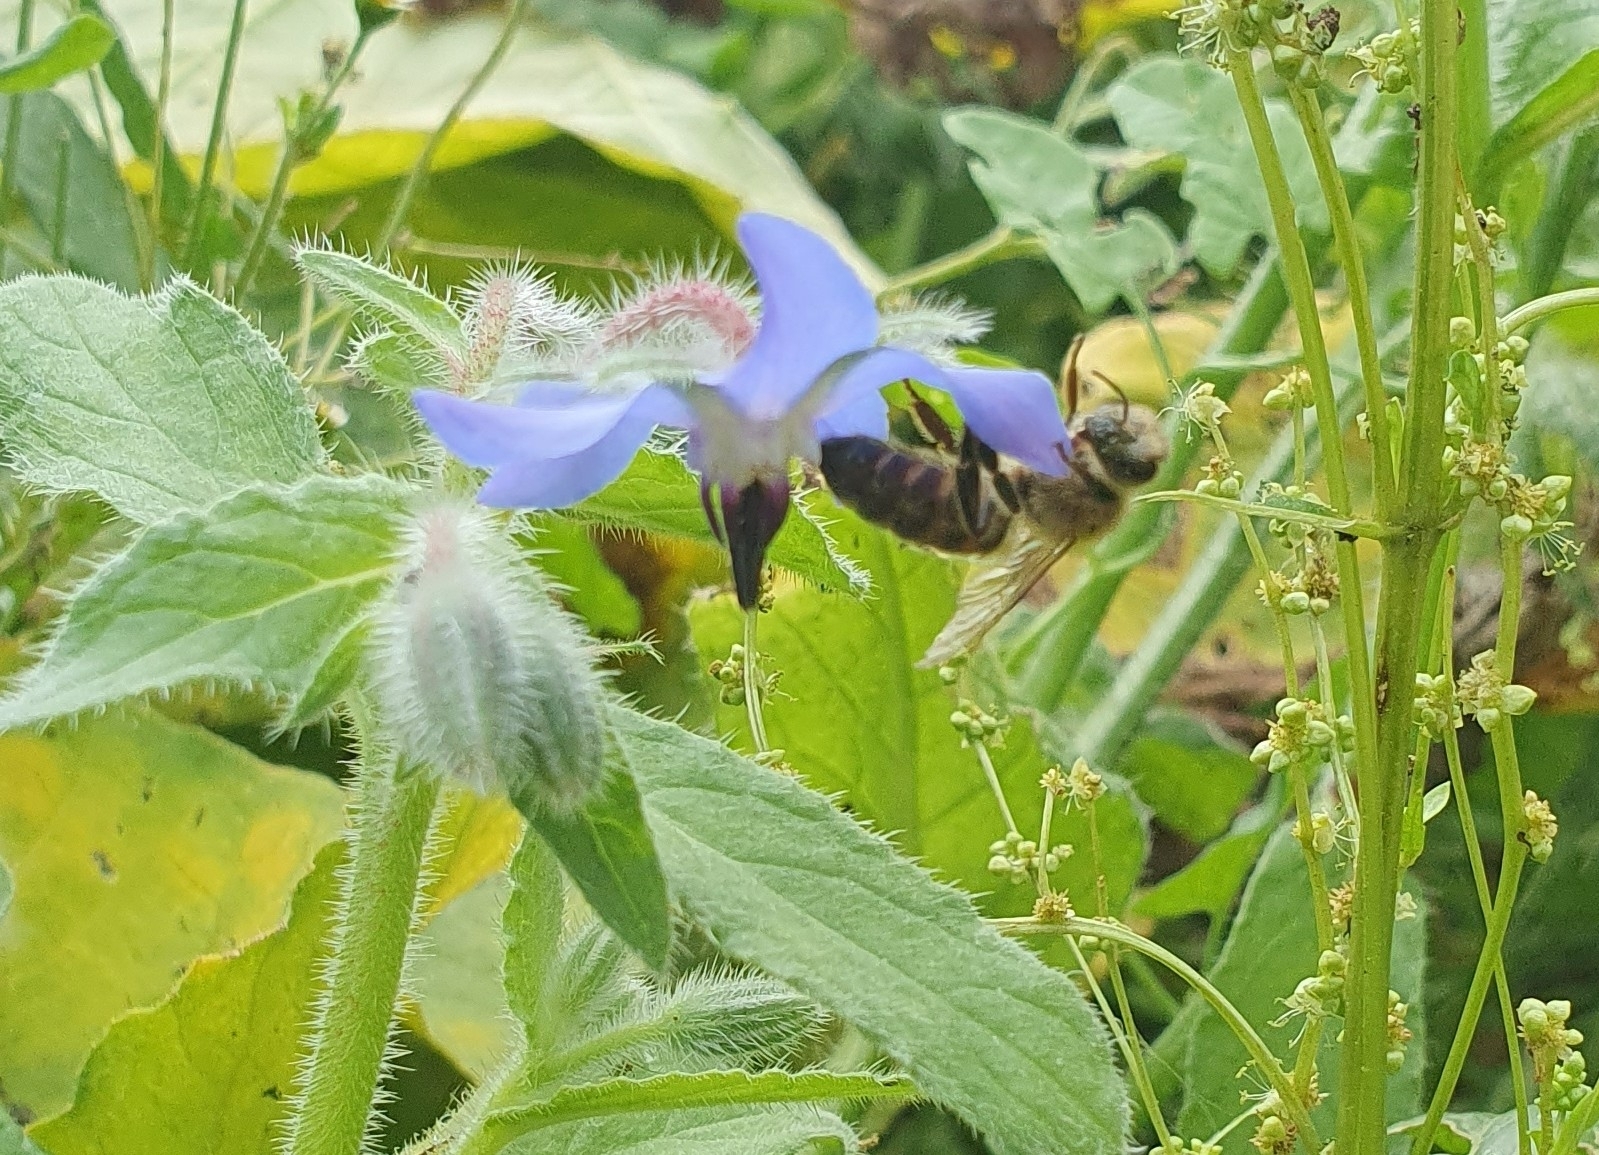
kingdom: Animalia
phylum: Arthropoda
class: Insecta
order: Hymenoptera
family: Apidae
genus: Apis
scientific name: Apis mellifera
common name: Honey bee
